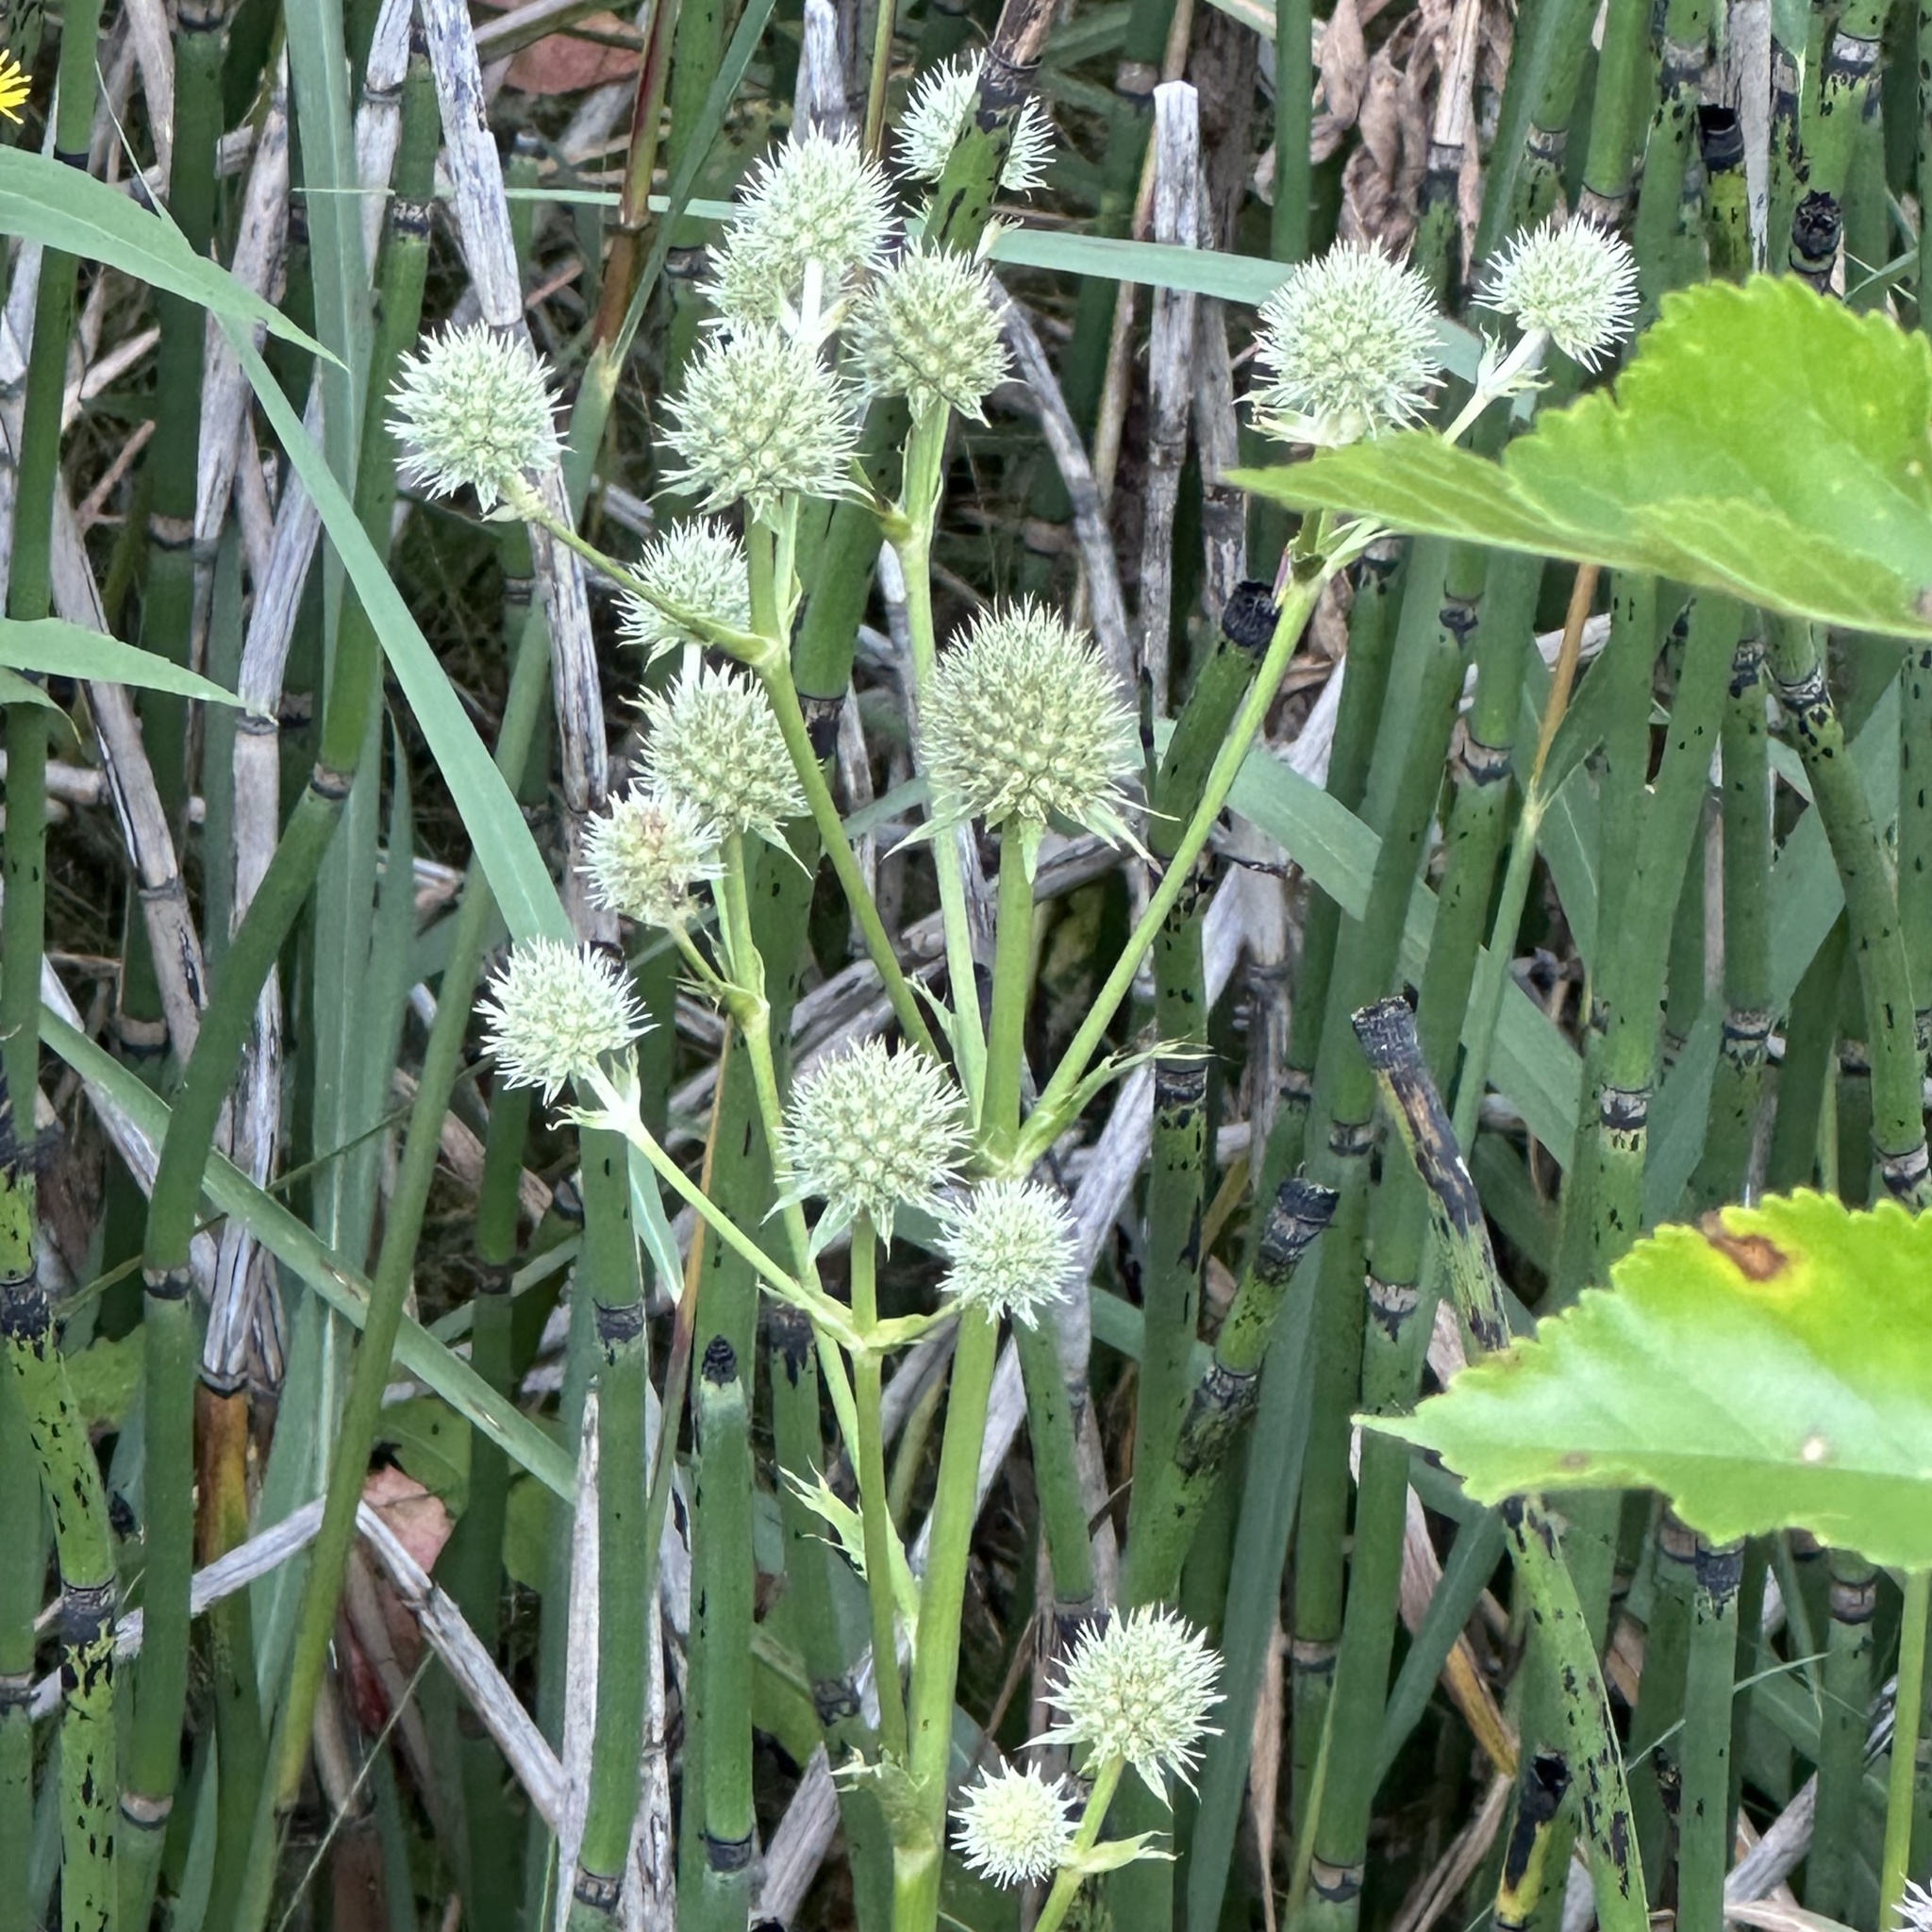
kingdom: Plantae
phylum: Tracheophyta
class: Magnoliopsida
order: Apiales
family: Apiaceae
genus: Eryngium
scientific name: Eryngium yuccifolium
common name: Button eryngo
